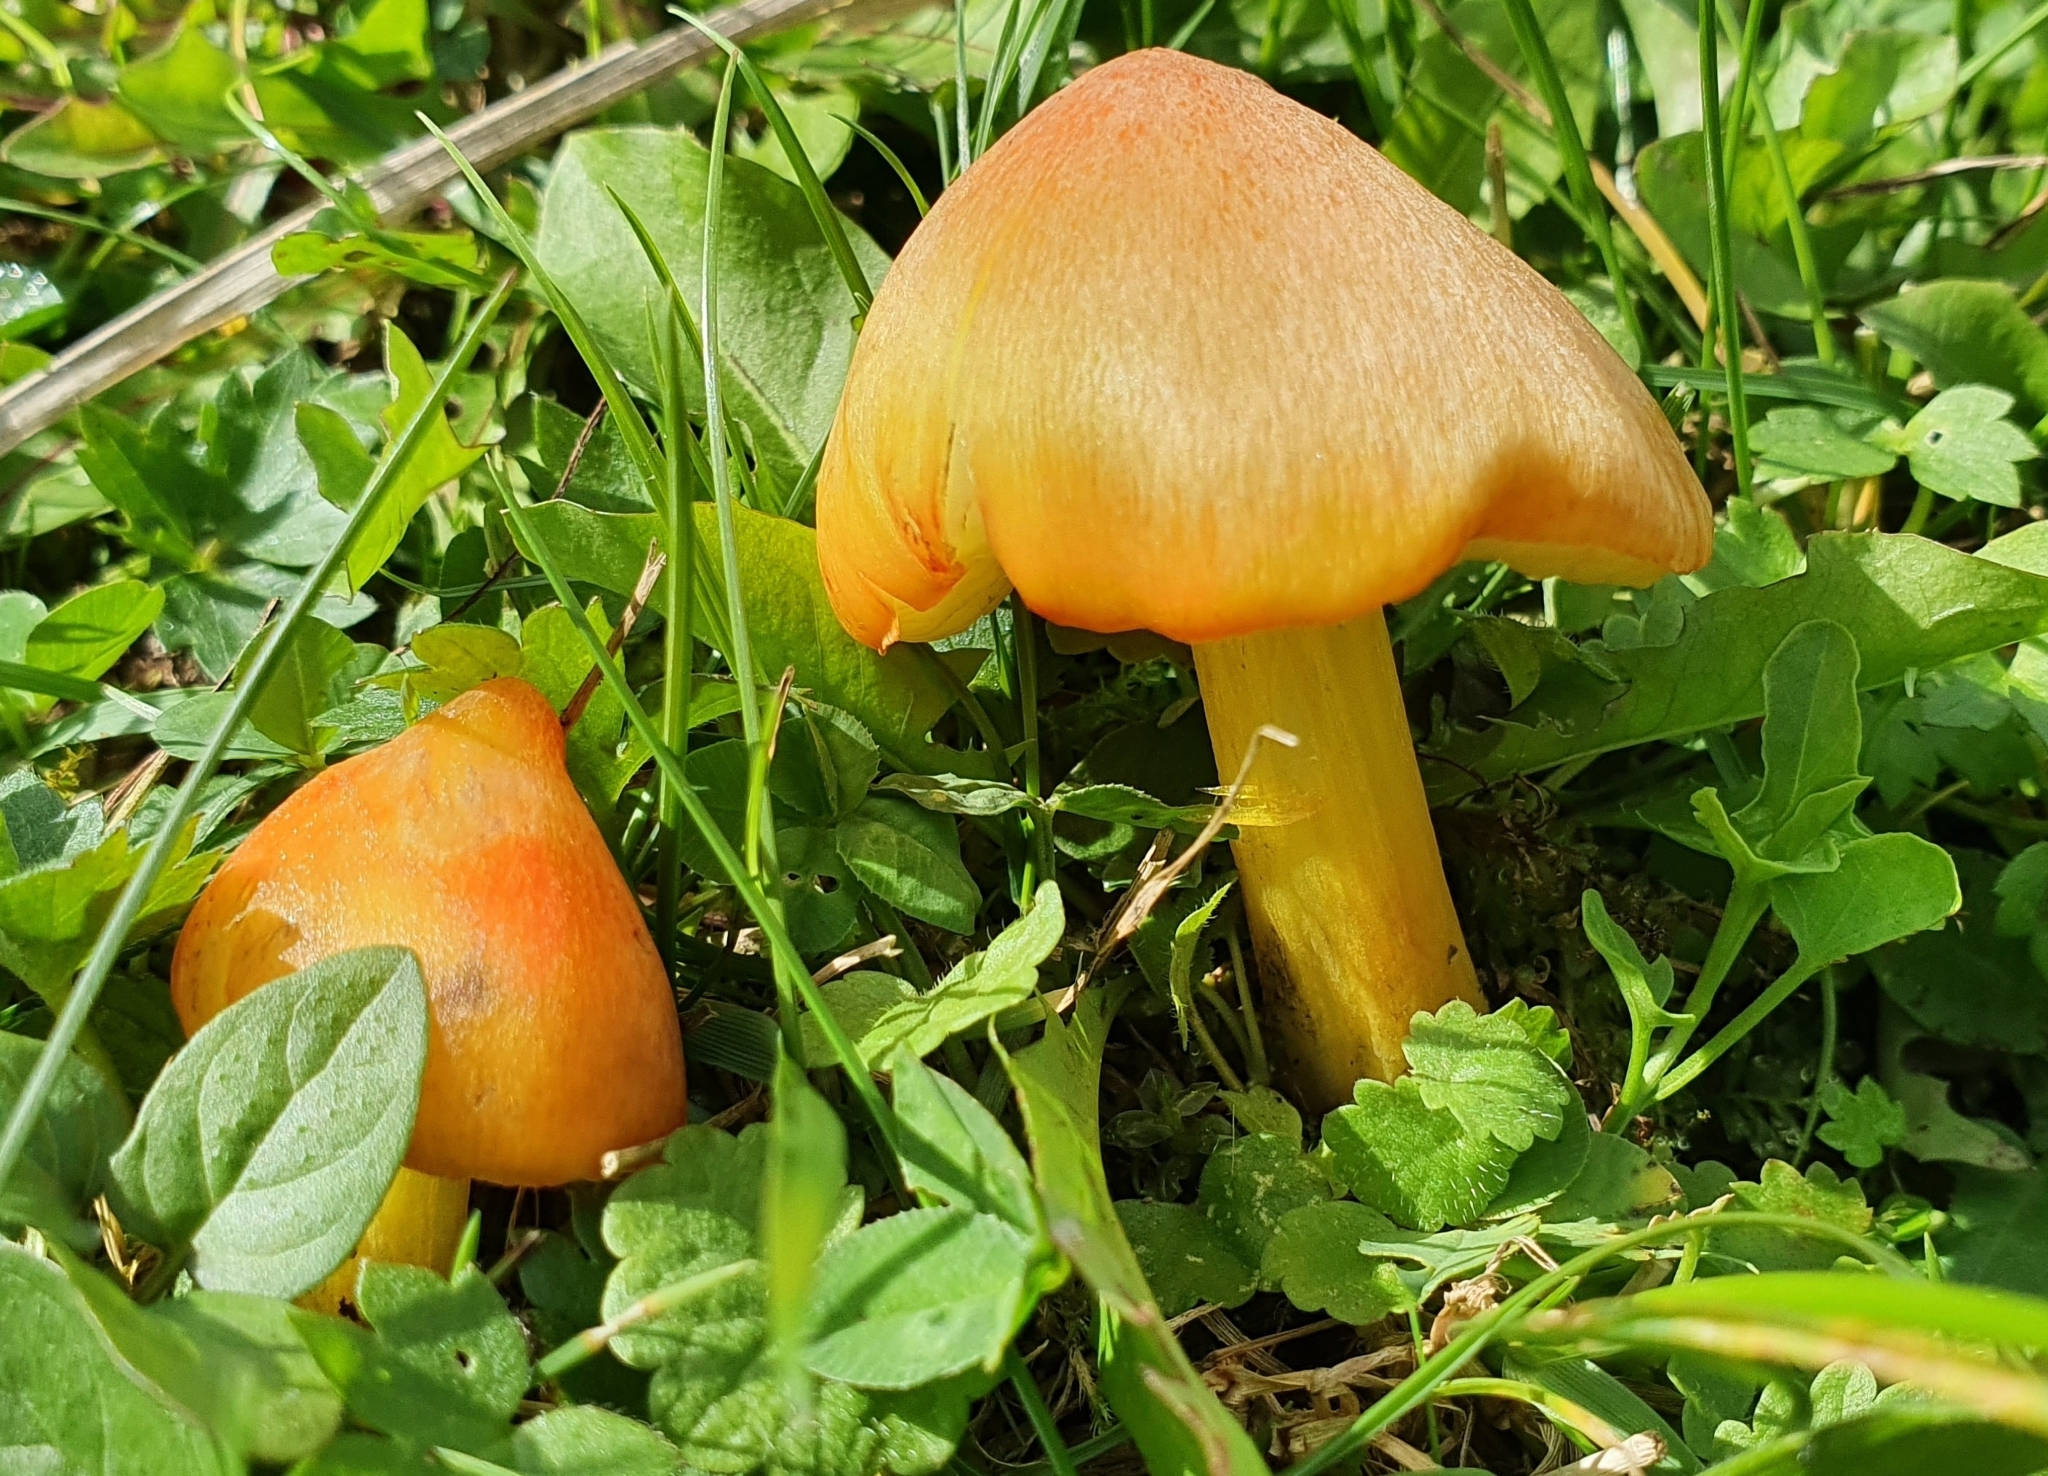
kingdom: Fungi
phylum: Basidiomycota
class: Agaricomycetes
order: Agaricales
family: Hygrophoraceae
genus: Hygrocybe
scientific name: Hygrocybe conica
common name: Blackening wax-cap
